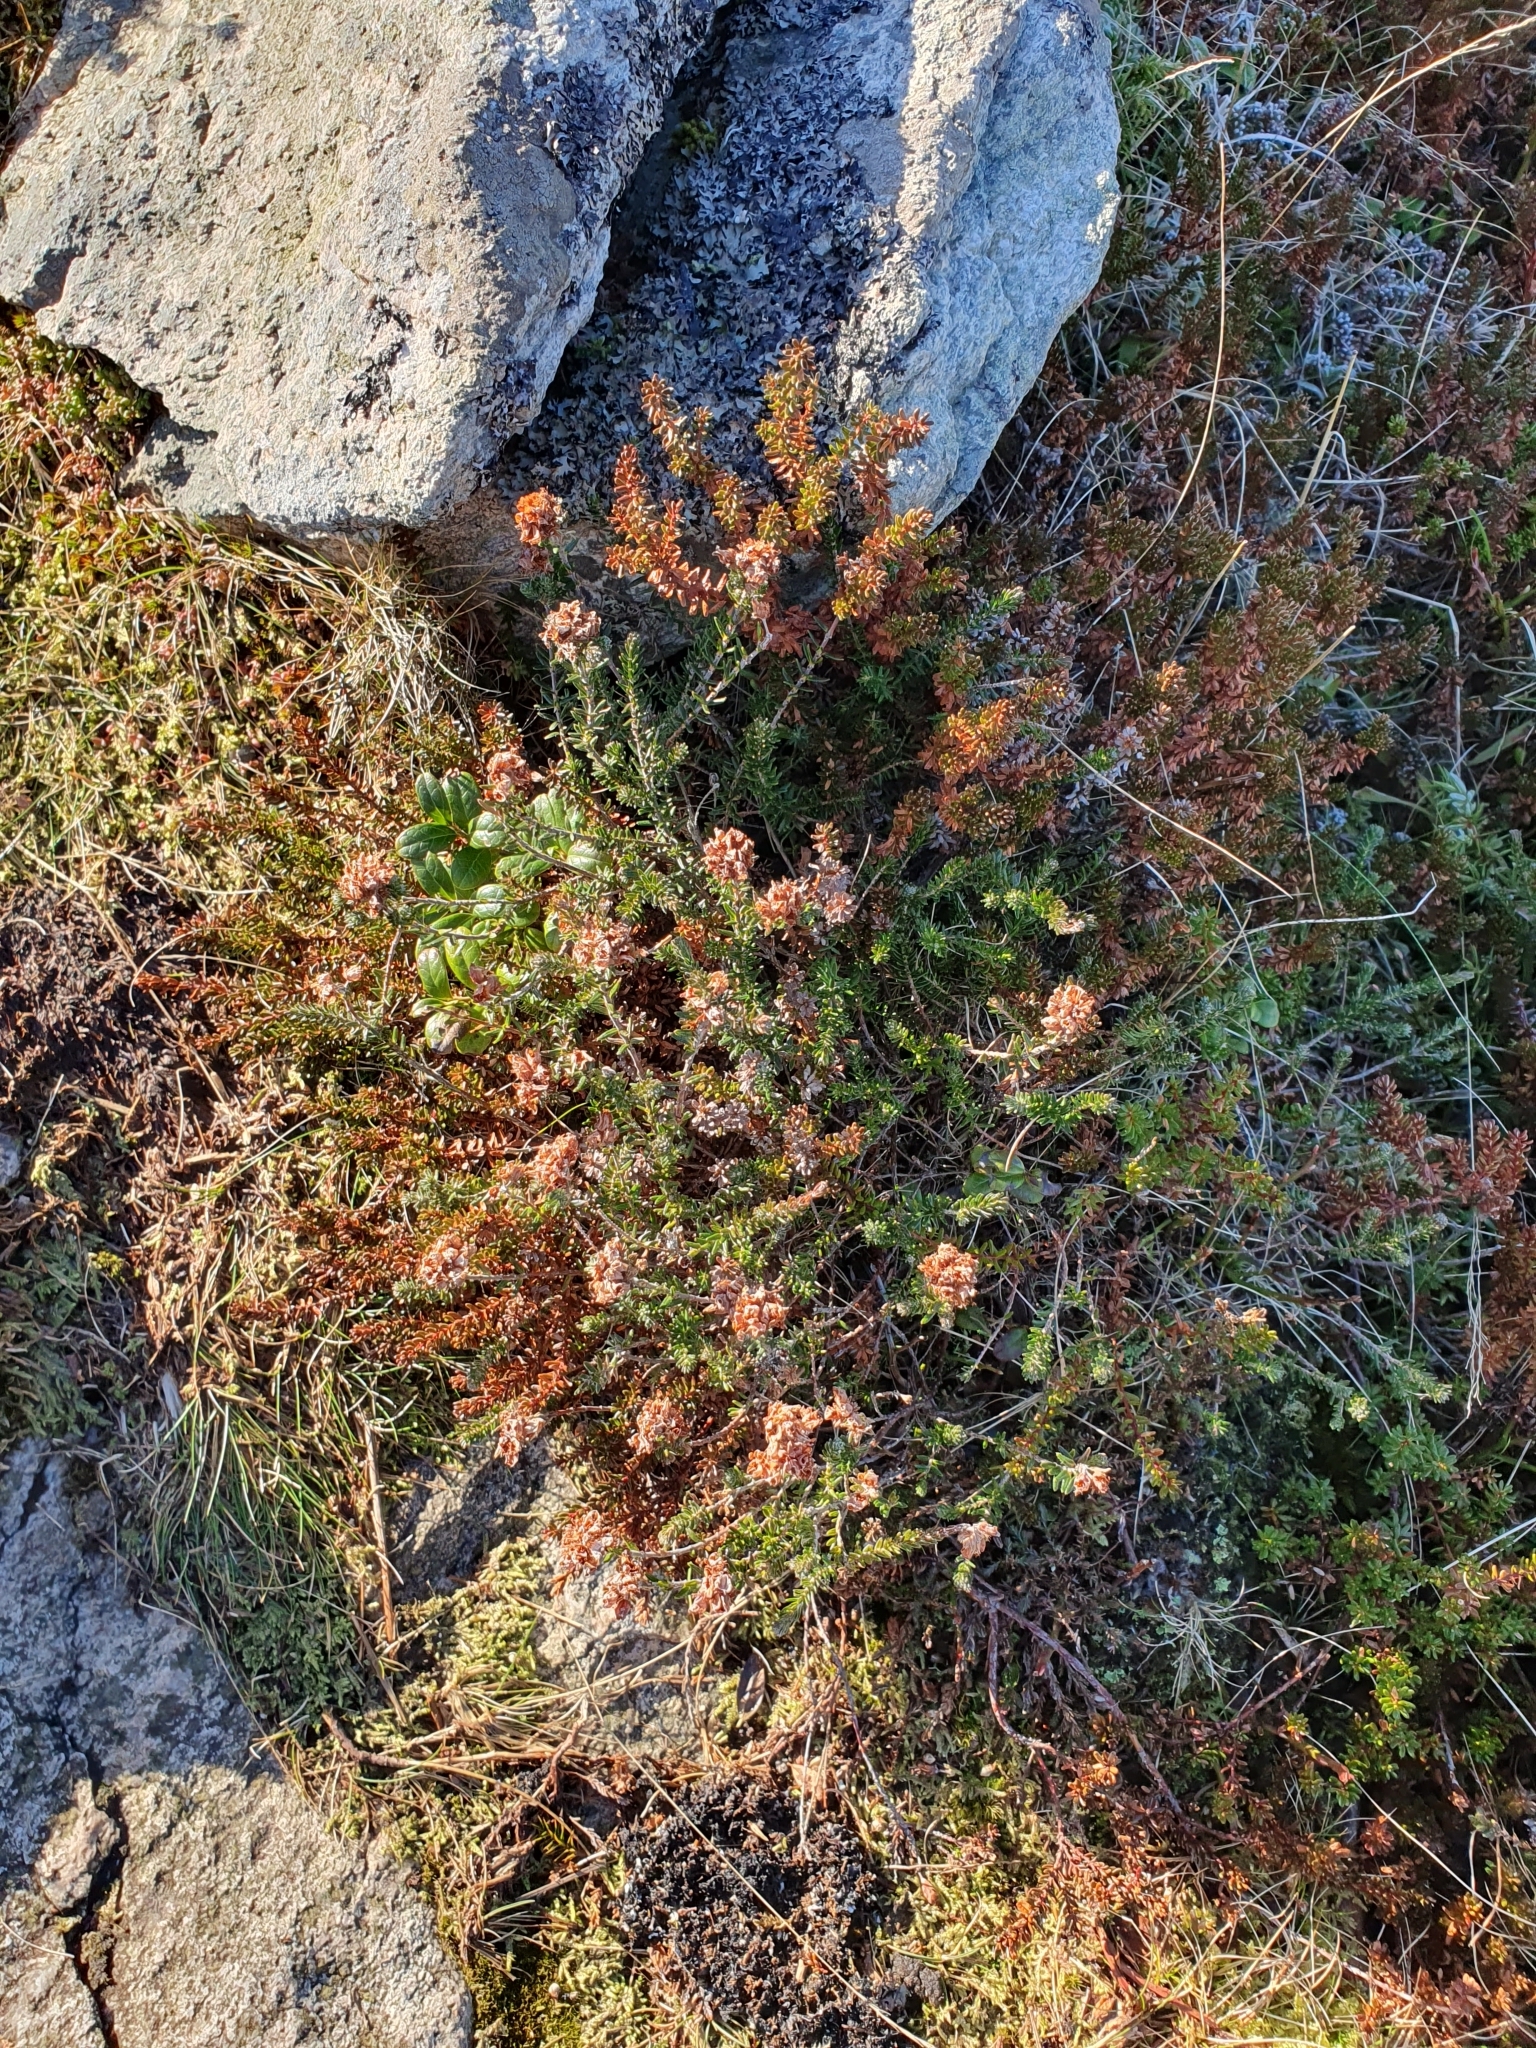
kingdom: Plantae
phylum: Tracheophyta
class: Magnoliopsida
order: Ericales
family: Ericaceae
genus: Erica
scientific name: Erica tetralix
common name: Cross-leaved heath
